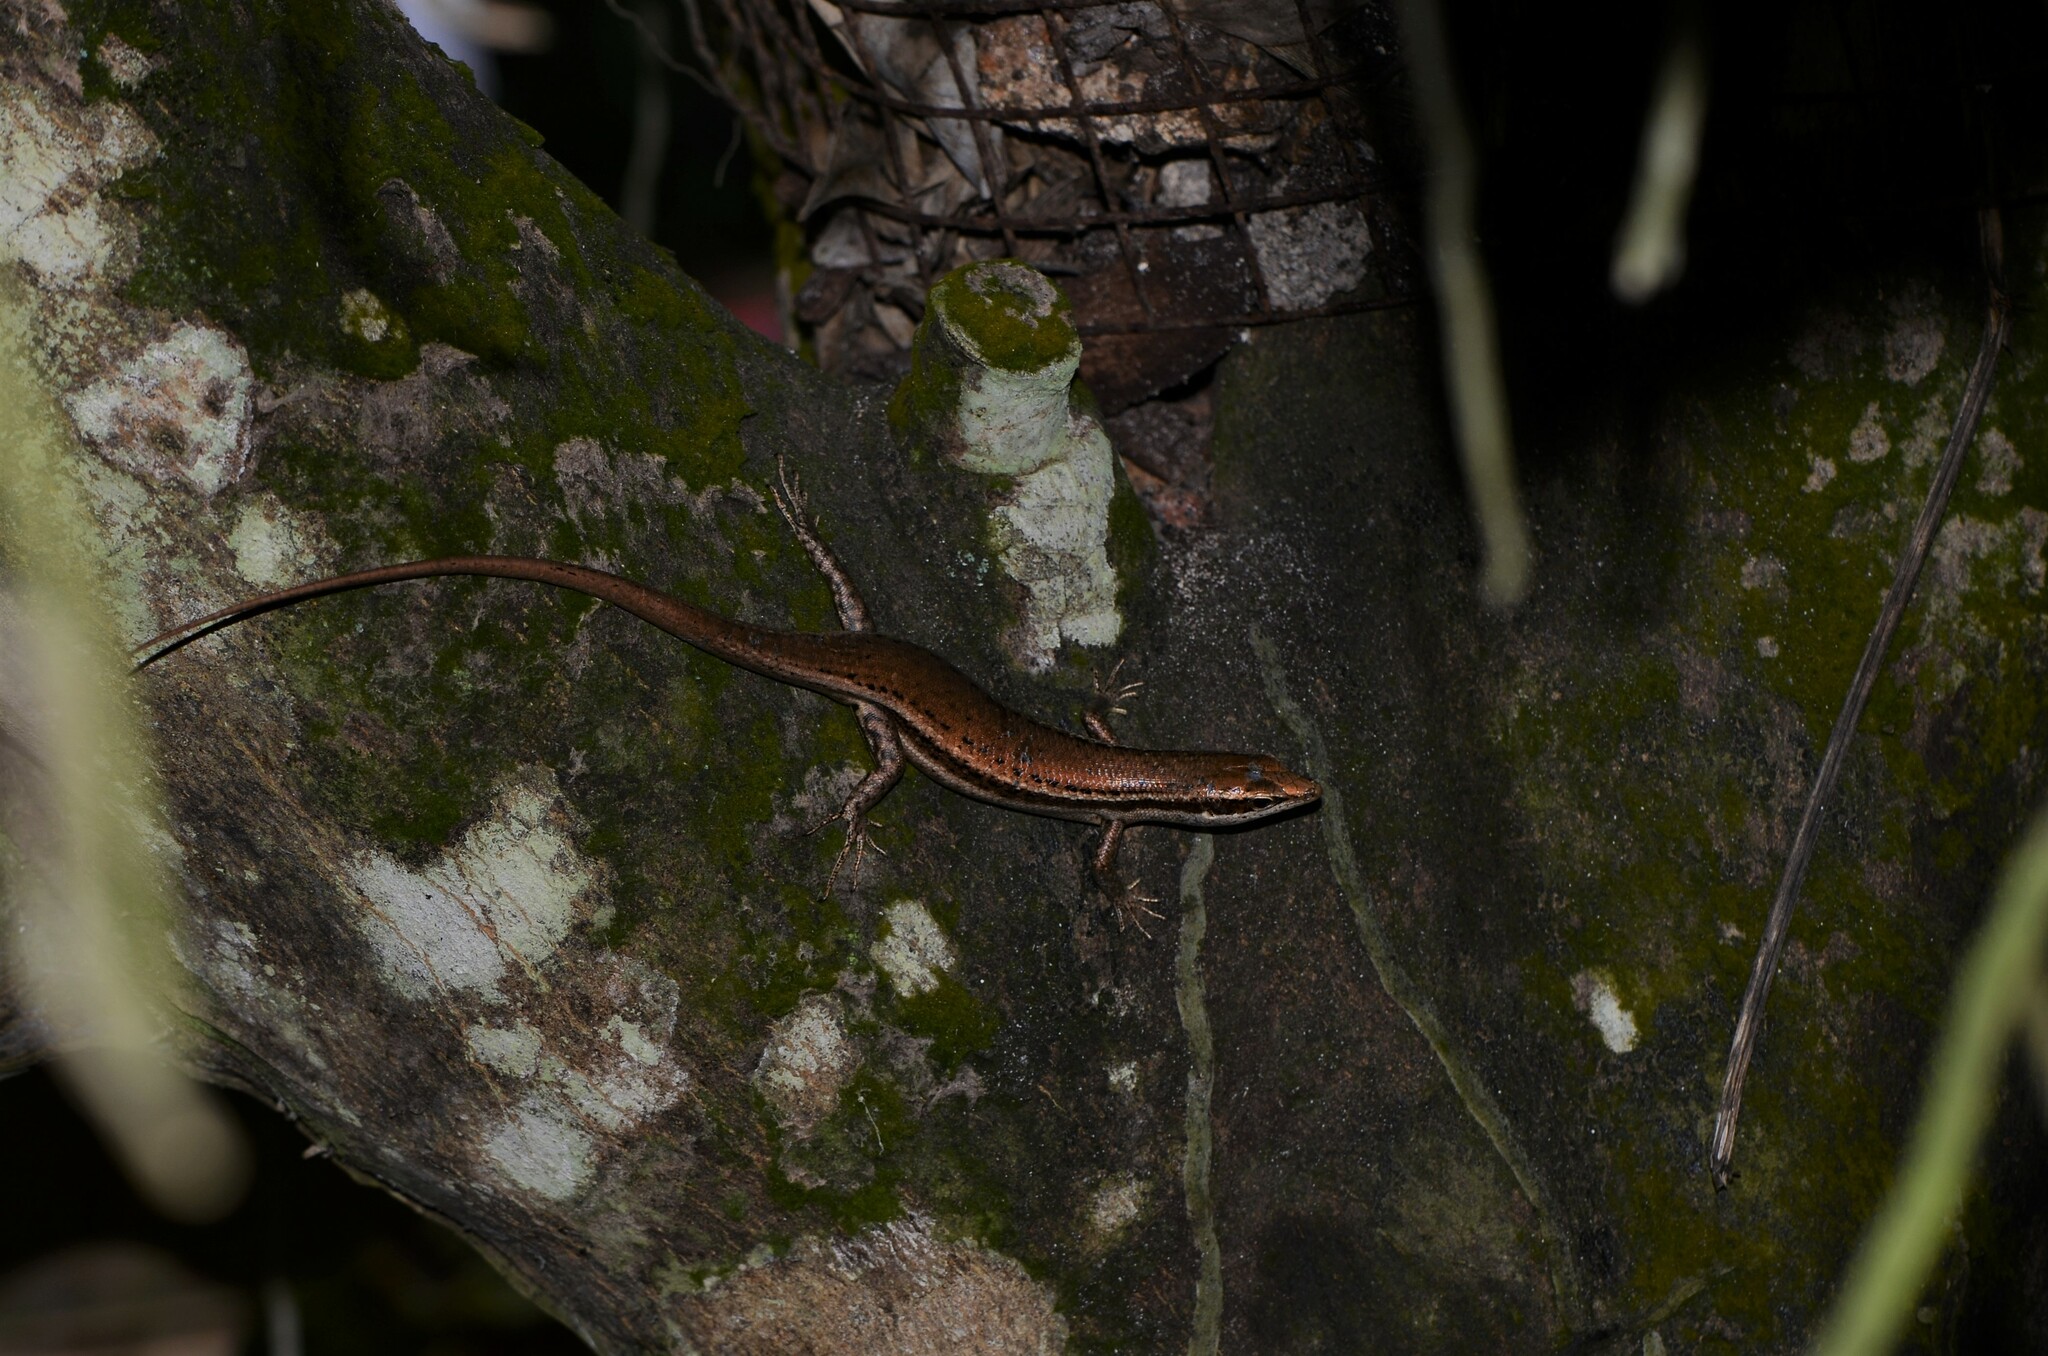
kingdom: Animalia
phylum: Chordata
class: Squamata
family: Scincidae
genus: Trachylepis
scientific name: Trachylepis sechellensis
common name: Seychelles skink
